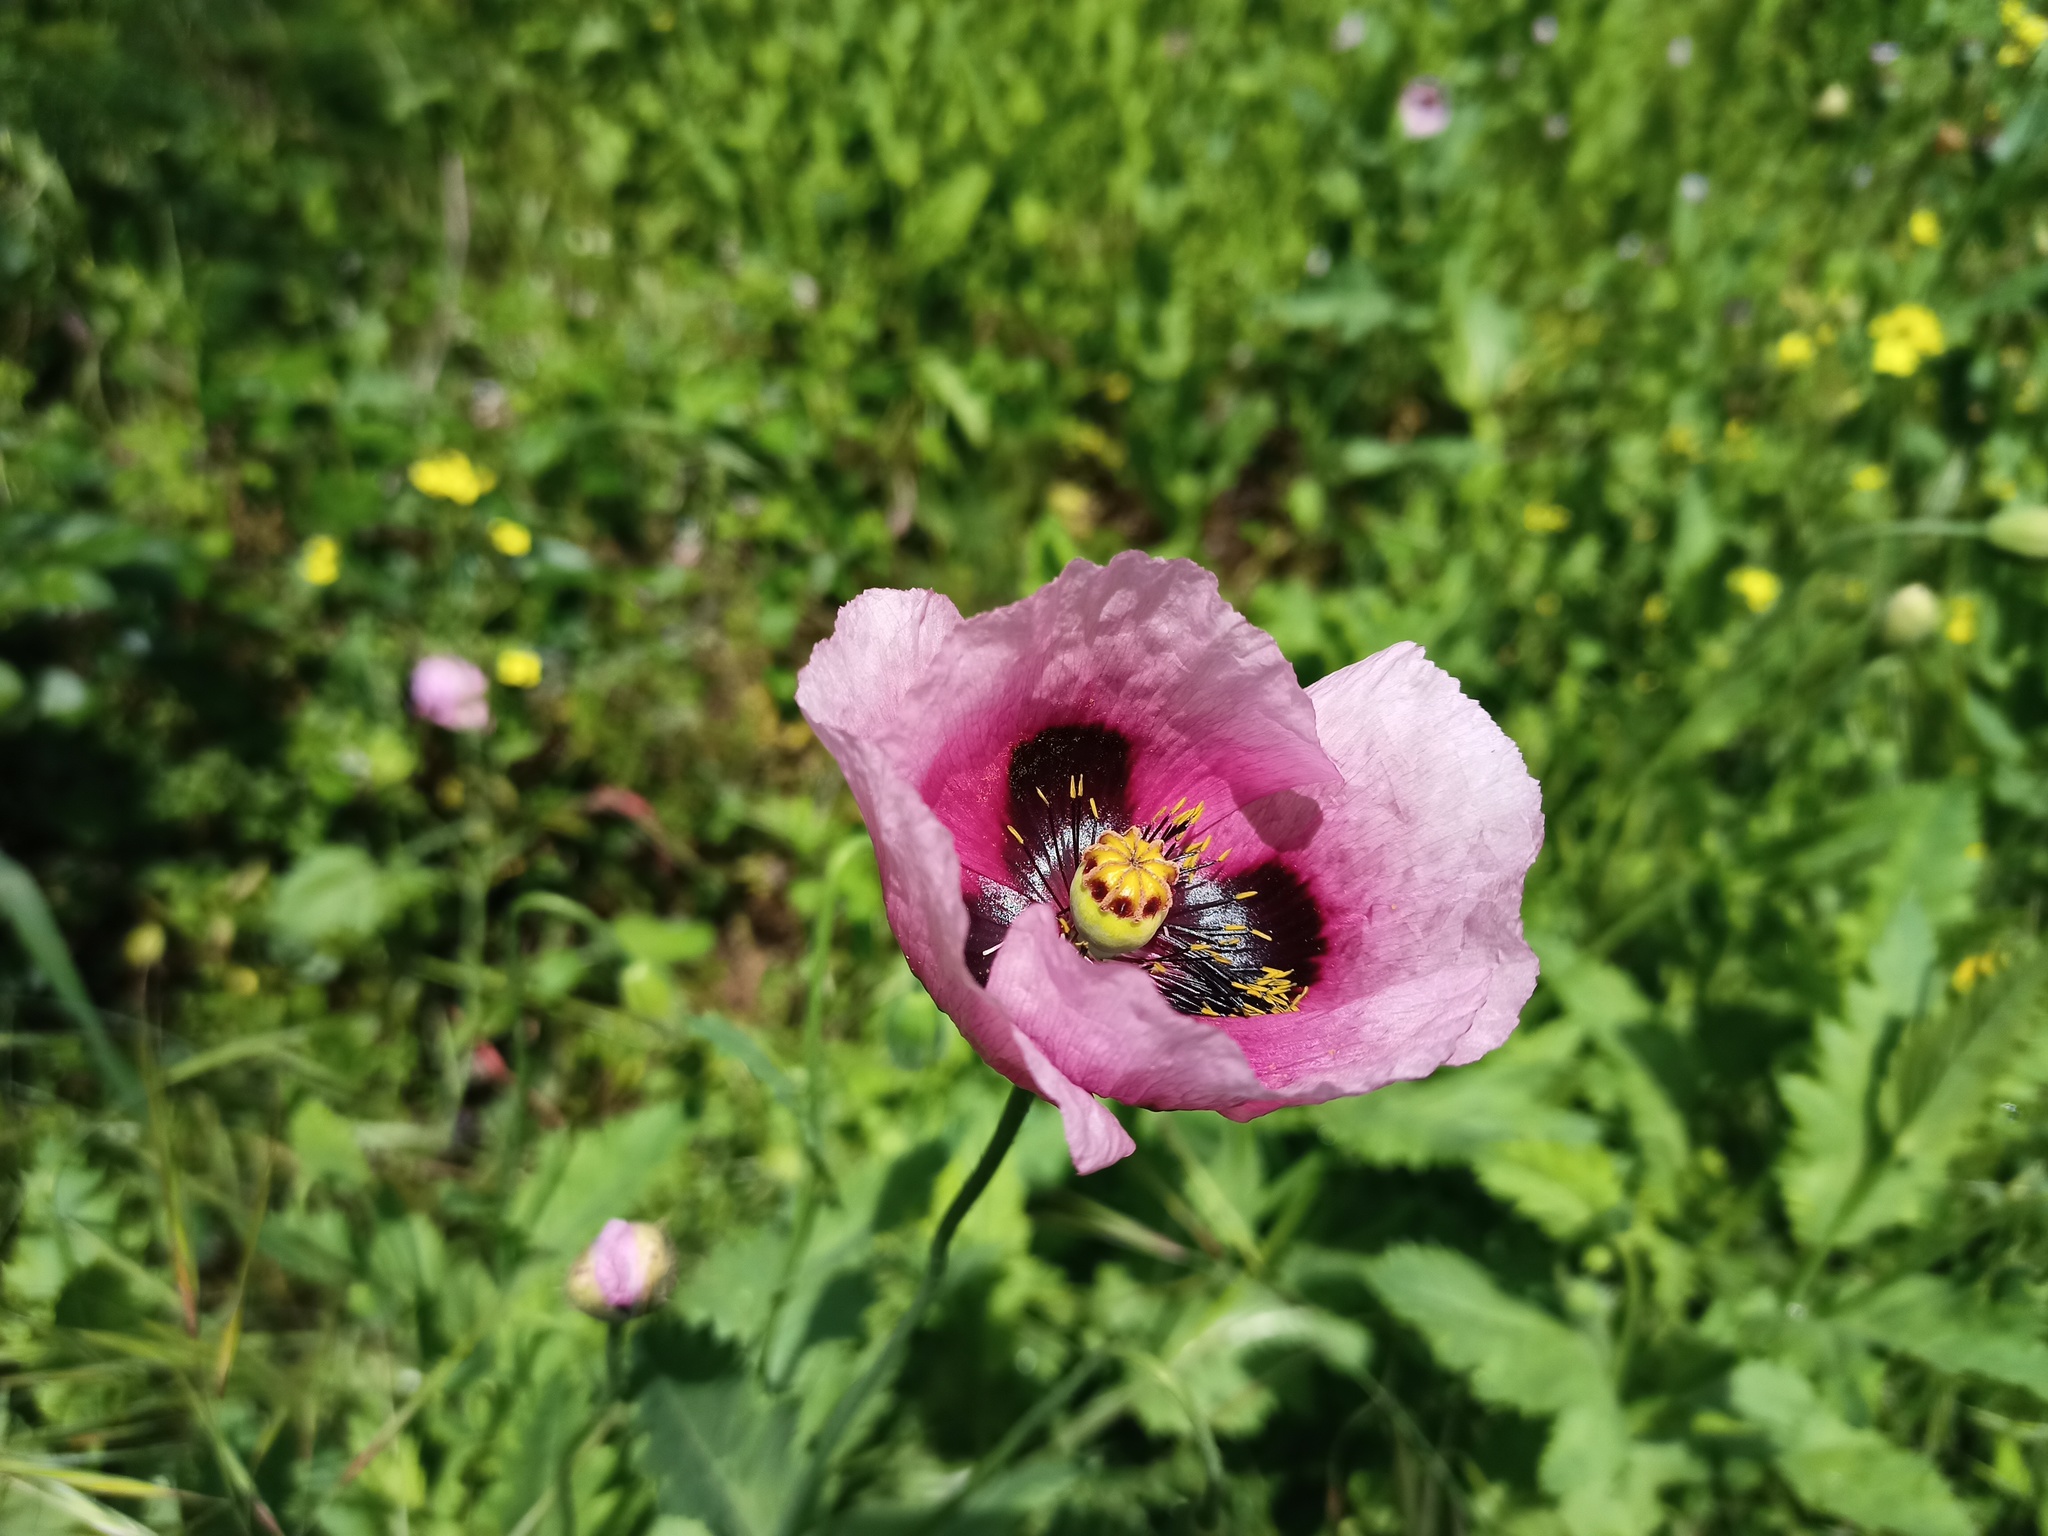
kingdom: Plantae
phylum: Tracheophyta
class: Magnoliopsida
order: Ranunculales
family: Papaveraceae
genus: Papaver
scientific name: Papaver somniferum
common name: Opium poppy
